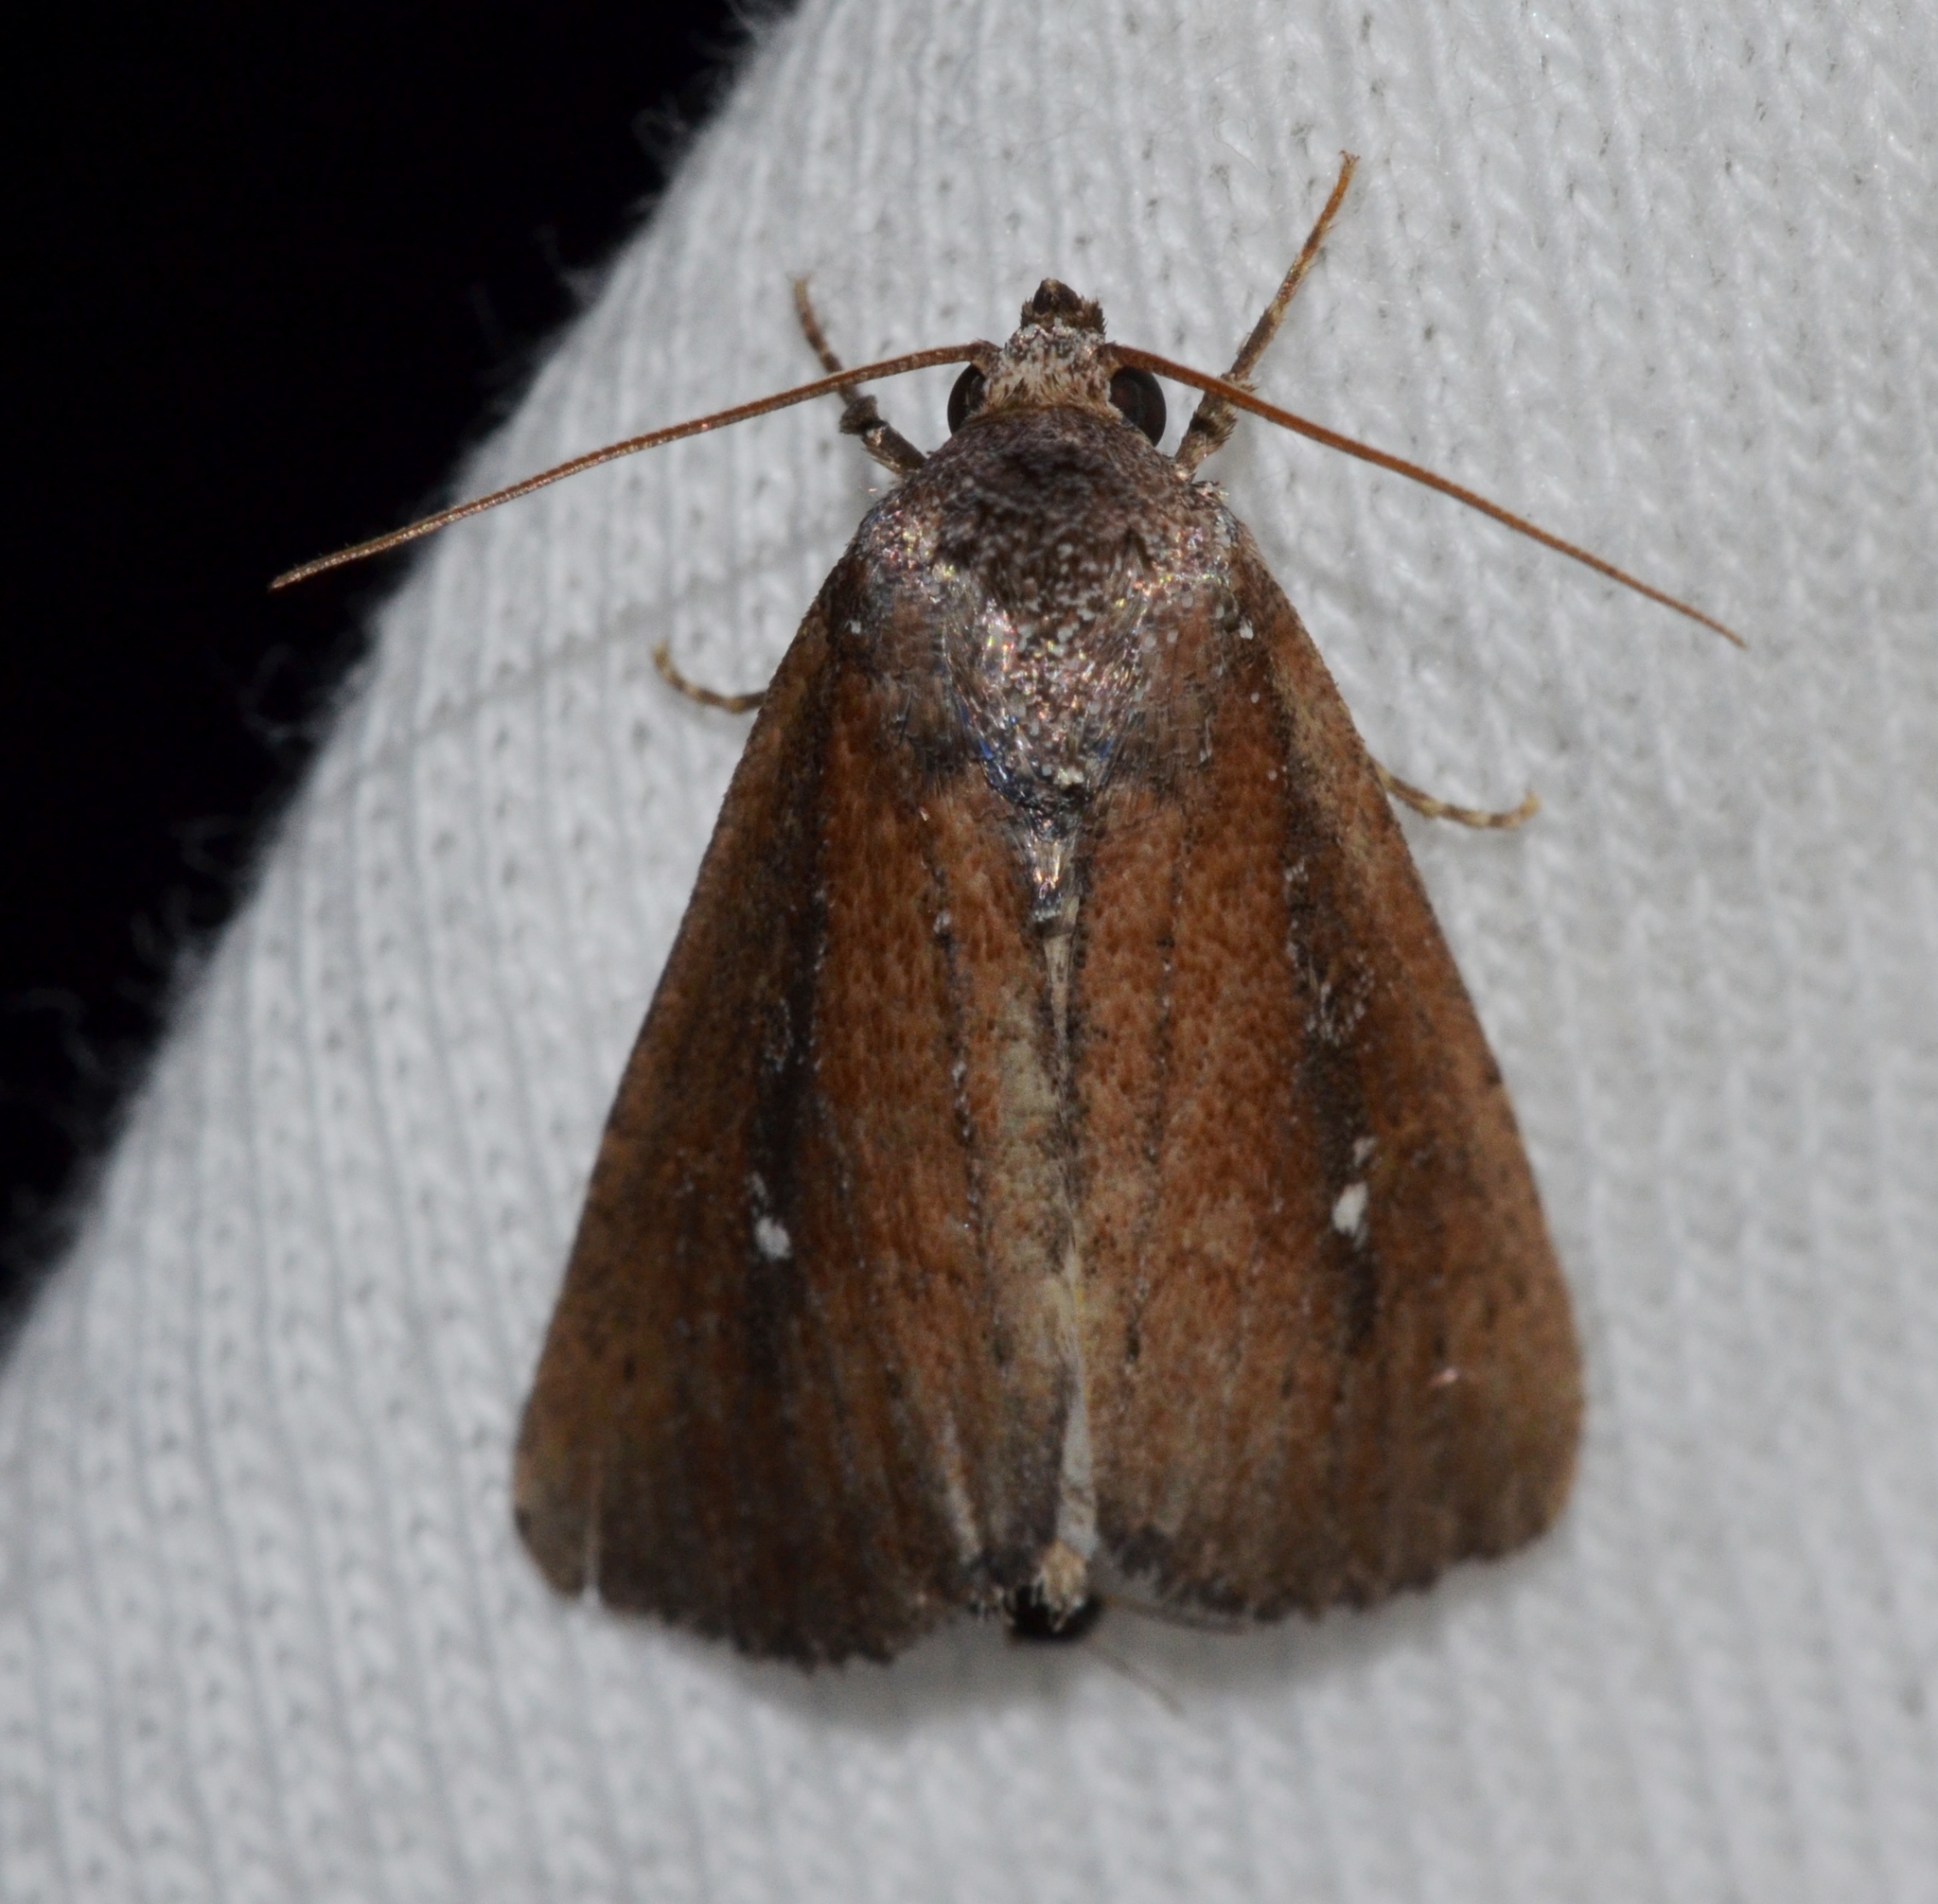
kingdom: Animalia
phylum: Arthropoda
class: Insecta
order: Lepidoptera
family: Noctuidae
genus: Condica
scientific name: Condica videns
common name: White-dotted groundling
